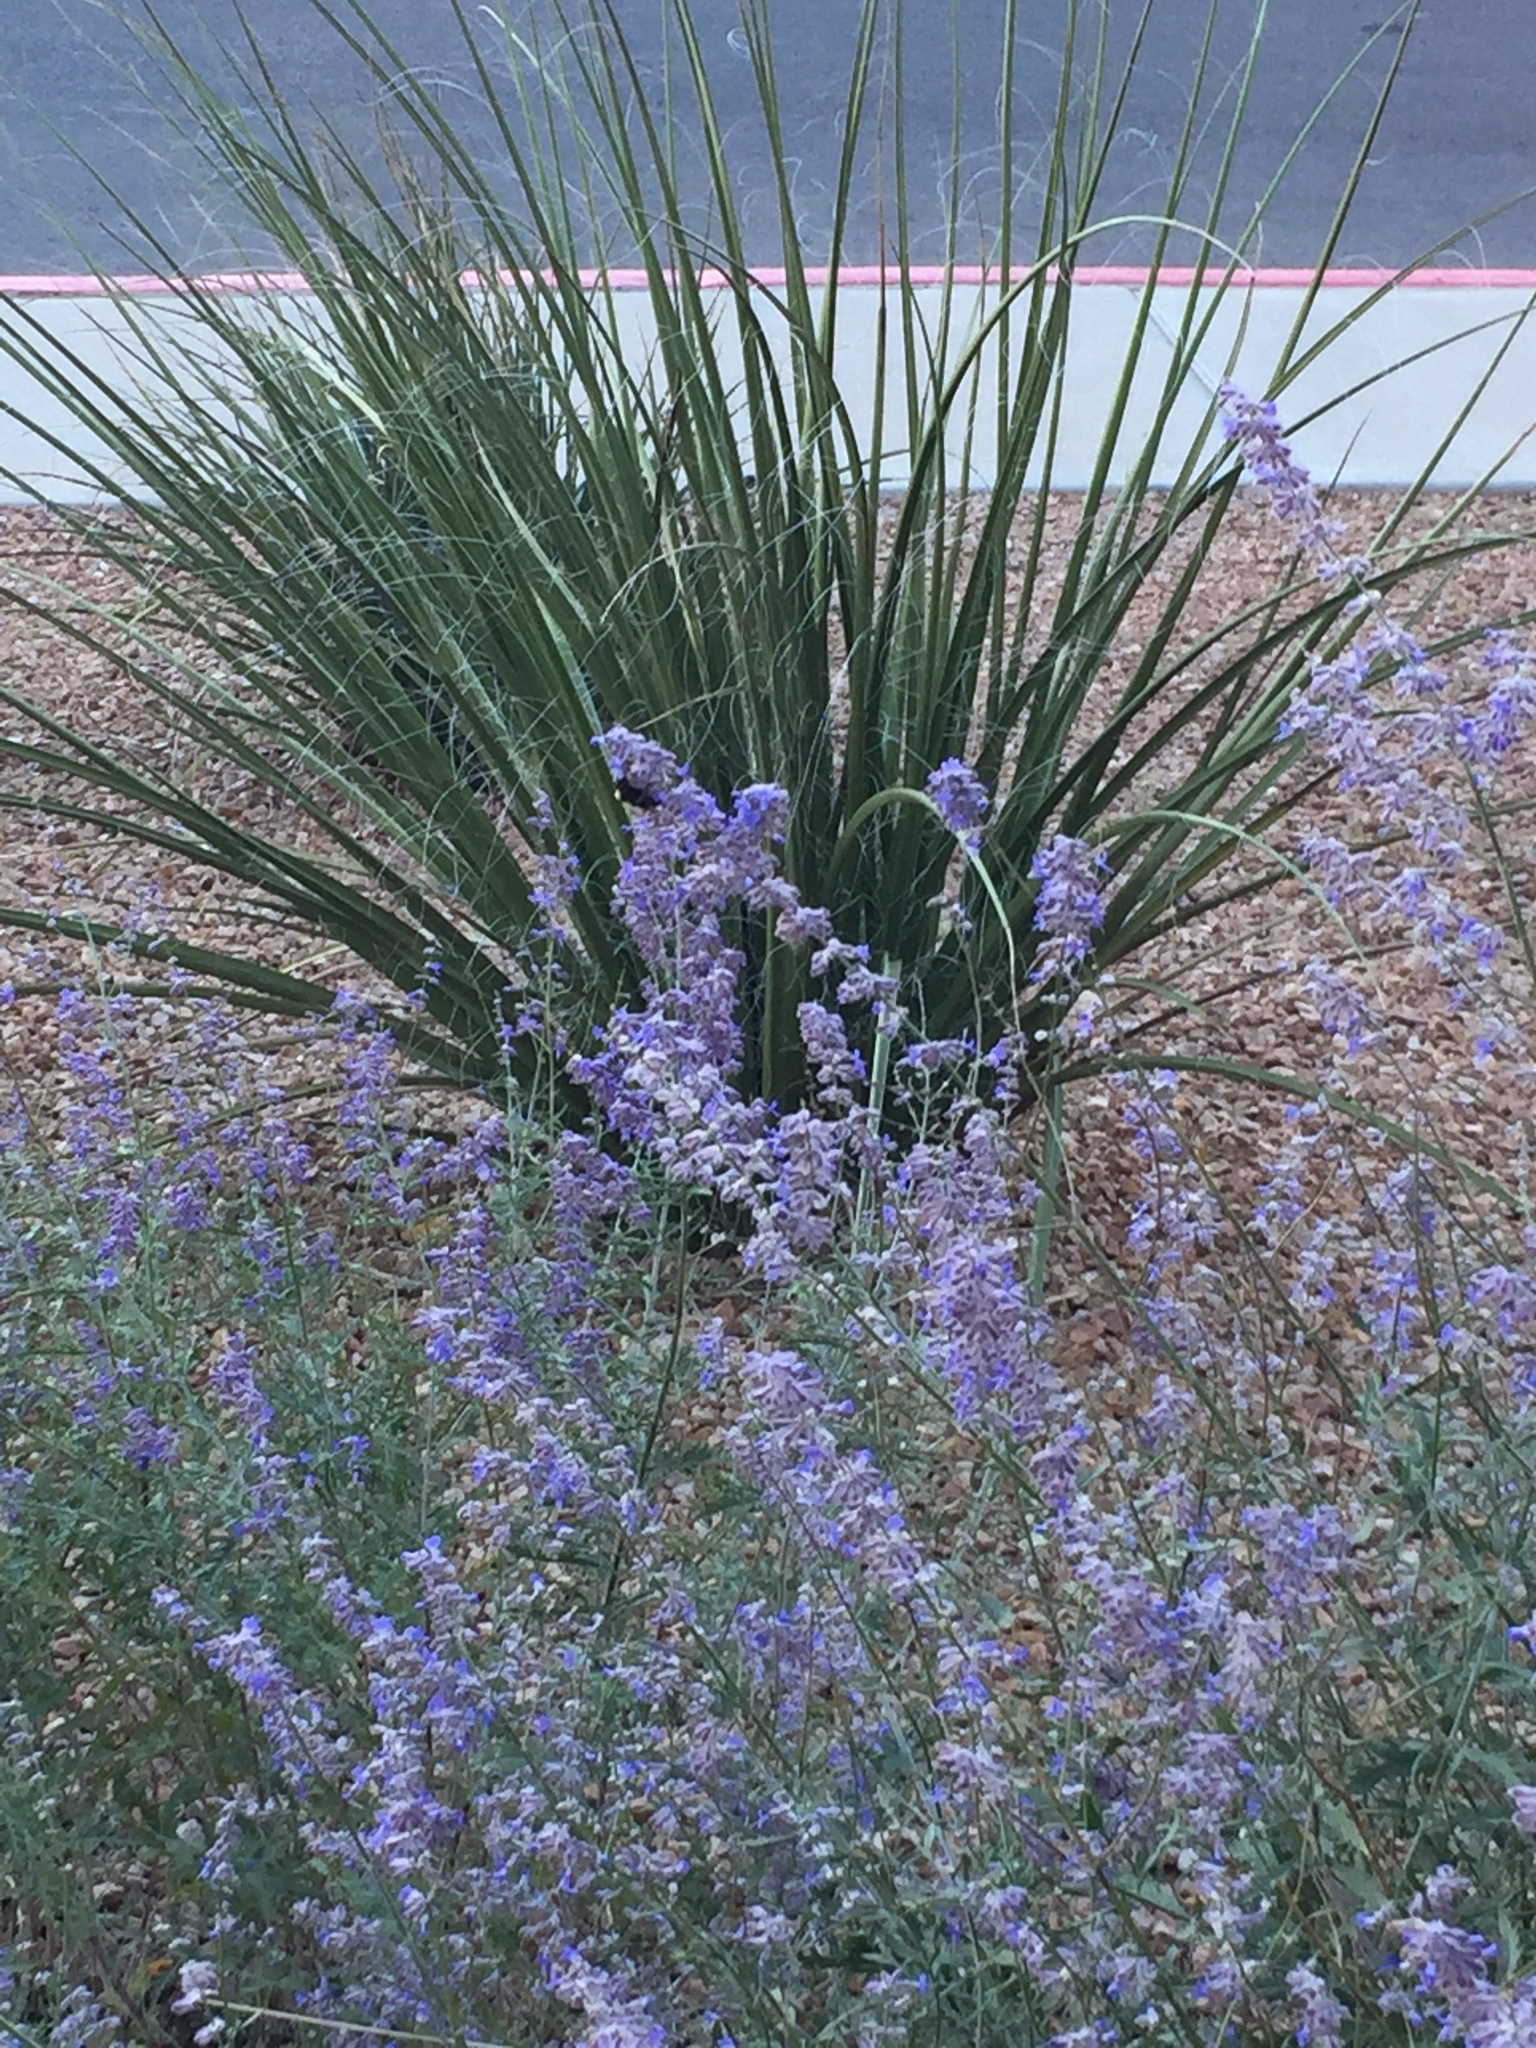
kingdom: Animalia
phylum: Arthropoda
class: Insecta
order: Hymenoptera
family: Apidae
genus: Bombus
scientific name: Bombus sonorus
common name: Sonoran bumble bee
